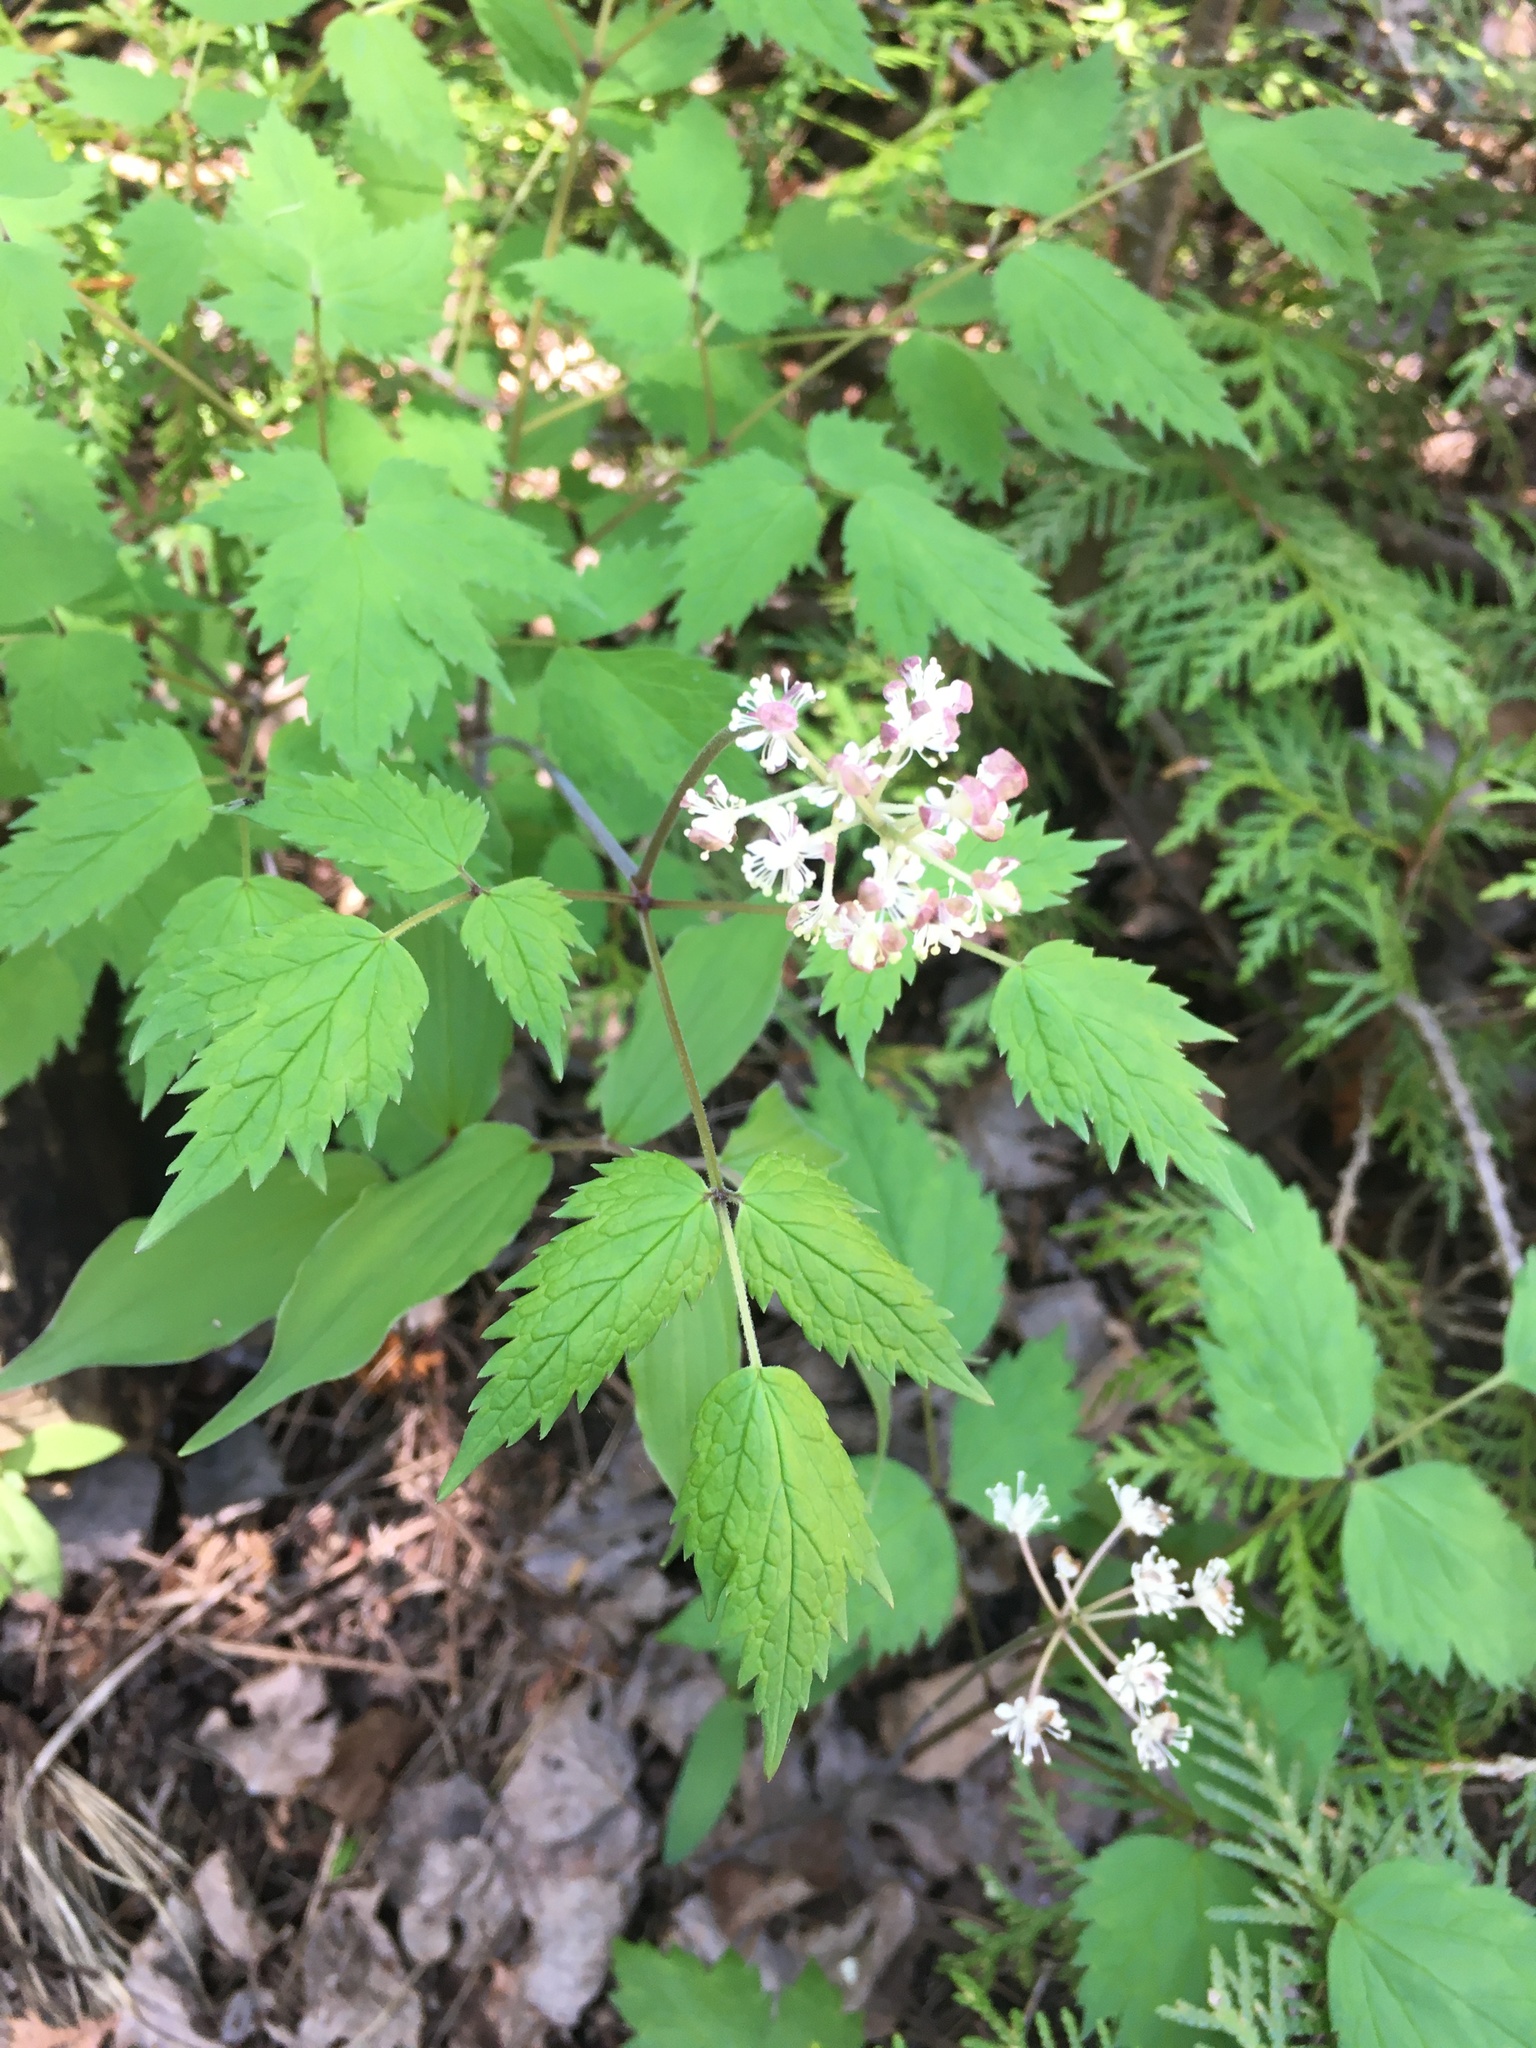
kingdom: Plantae
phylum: Tracheophyta
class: Magnoliopsida
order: Ranunculales
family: Ranunculaceae
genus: Actaea
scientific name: Actaea rubra
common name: Red baneberry
